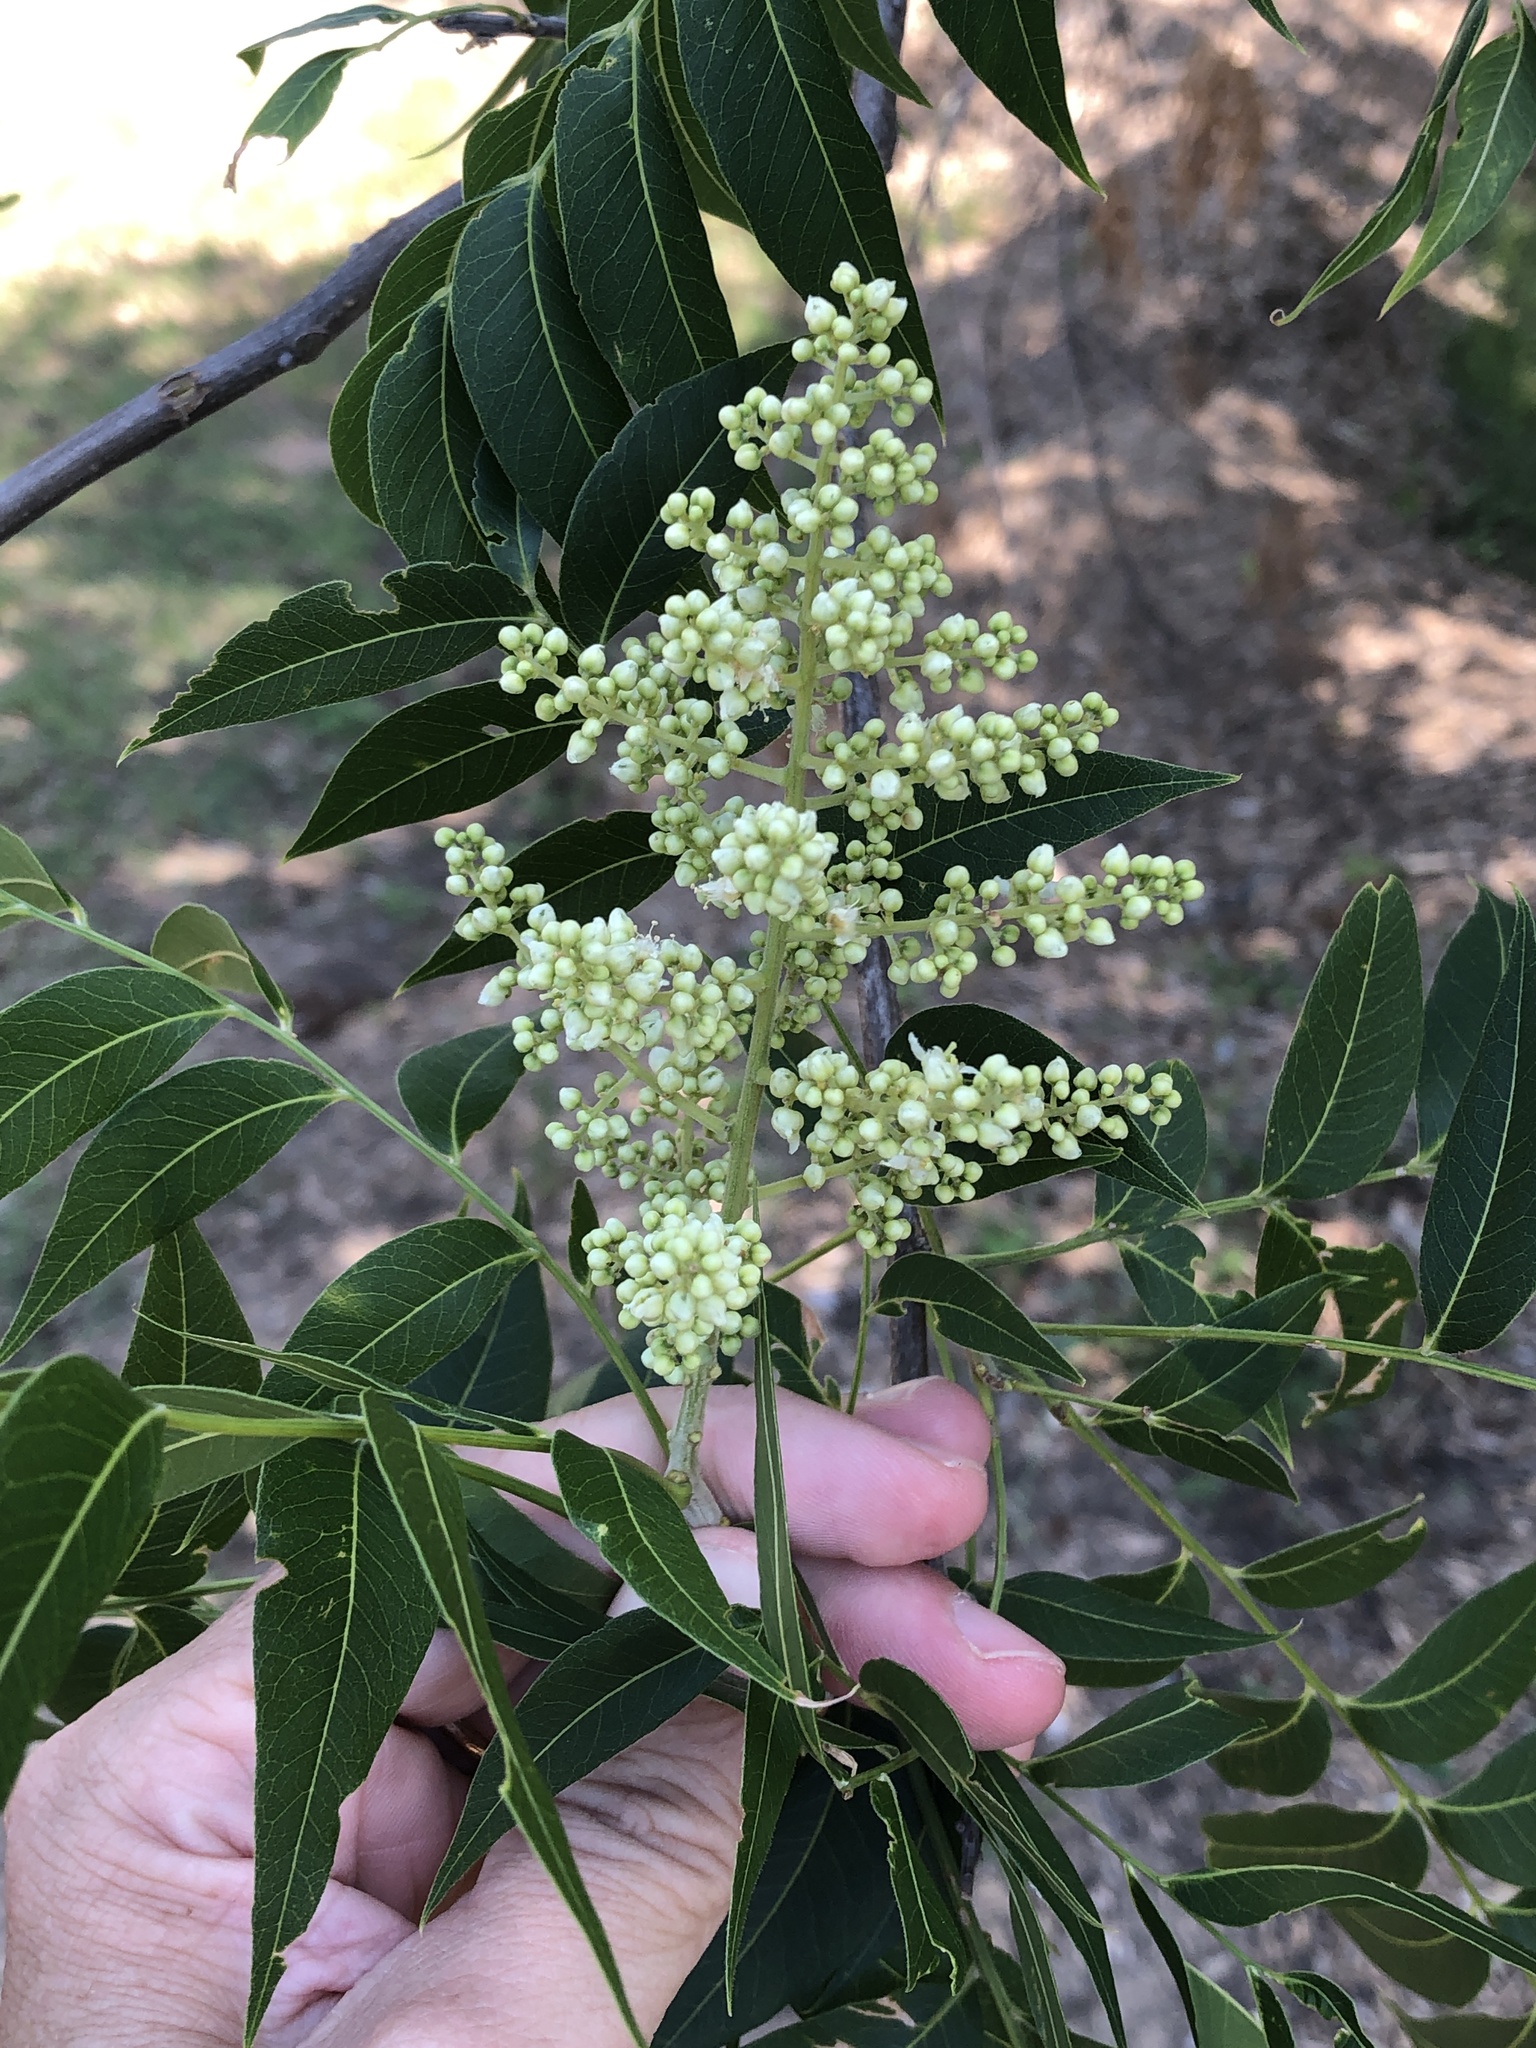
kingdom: Plantae
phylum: Tracheophyta
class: Magnoliopsida
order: Sapindales
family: Sapindaceae
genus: Sapindus
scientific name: Sapindus drummondii
